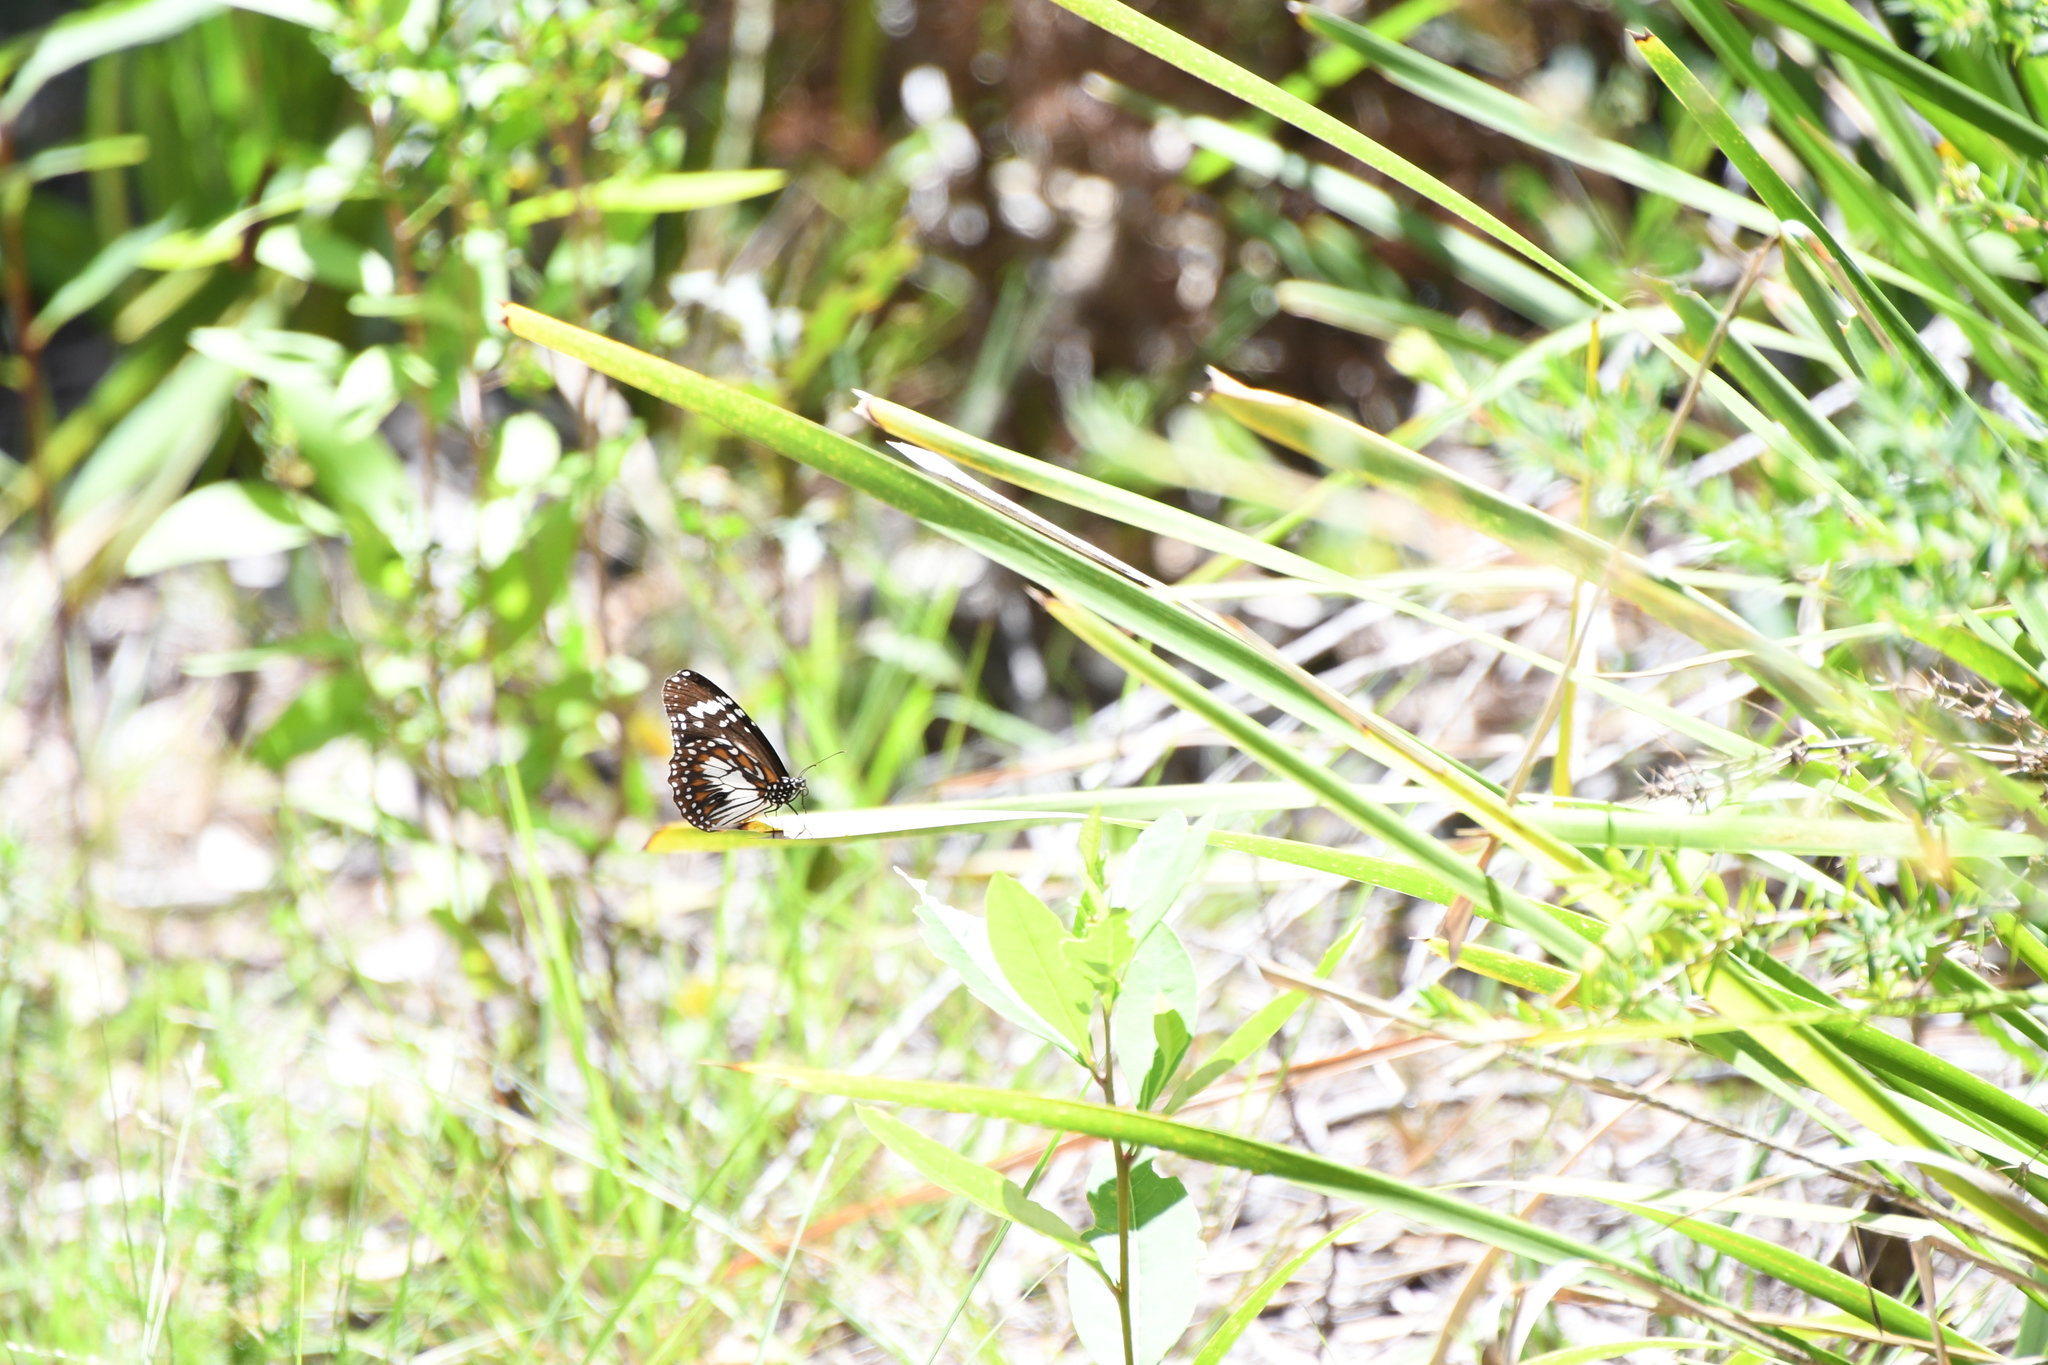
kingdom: Animalia
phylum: Arthropoda
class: Insecta
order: Lepidoptera
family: Nymphalidae
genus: Danaus
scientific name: Danaus affinis
